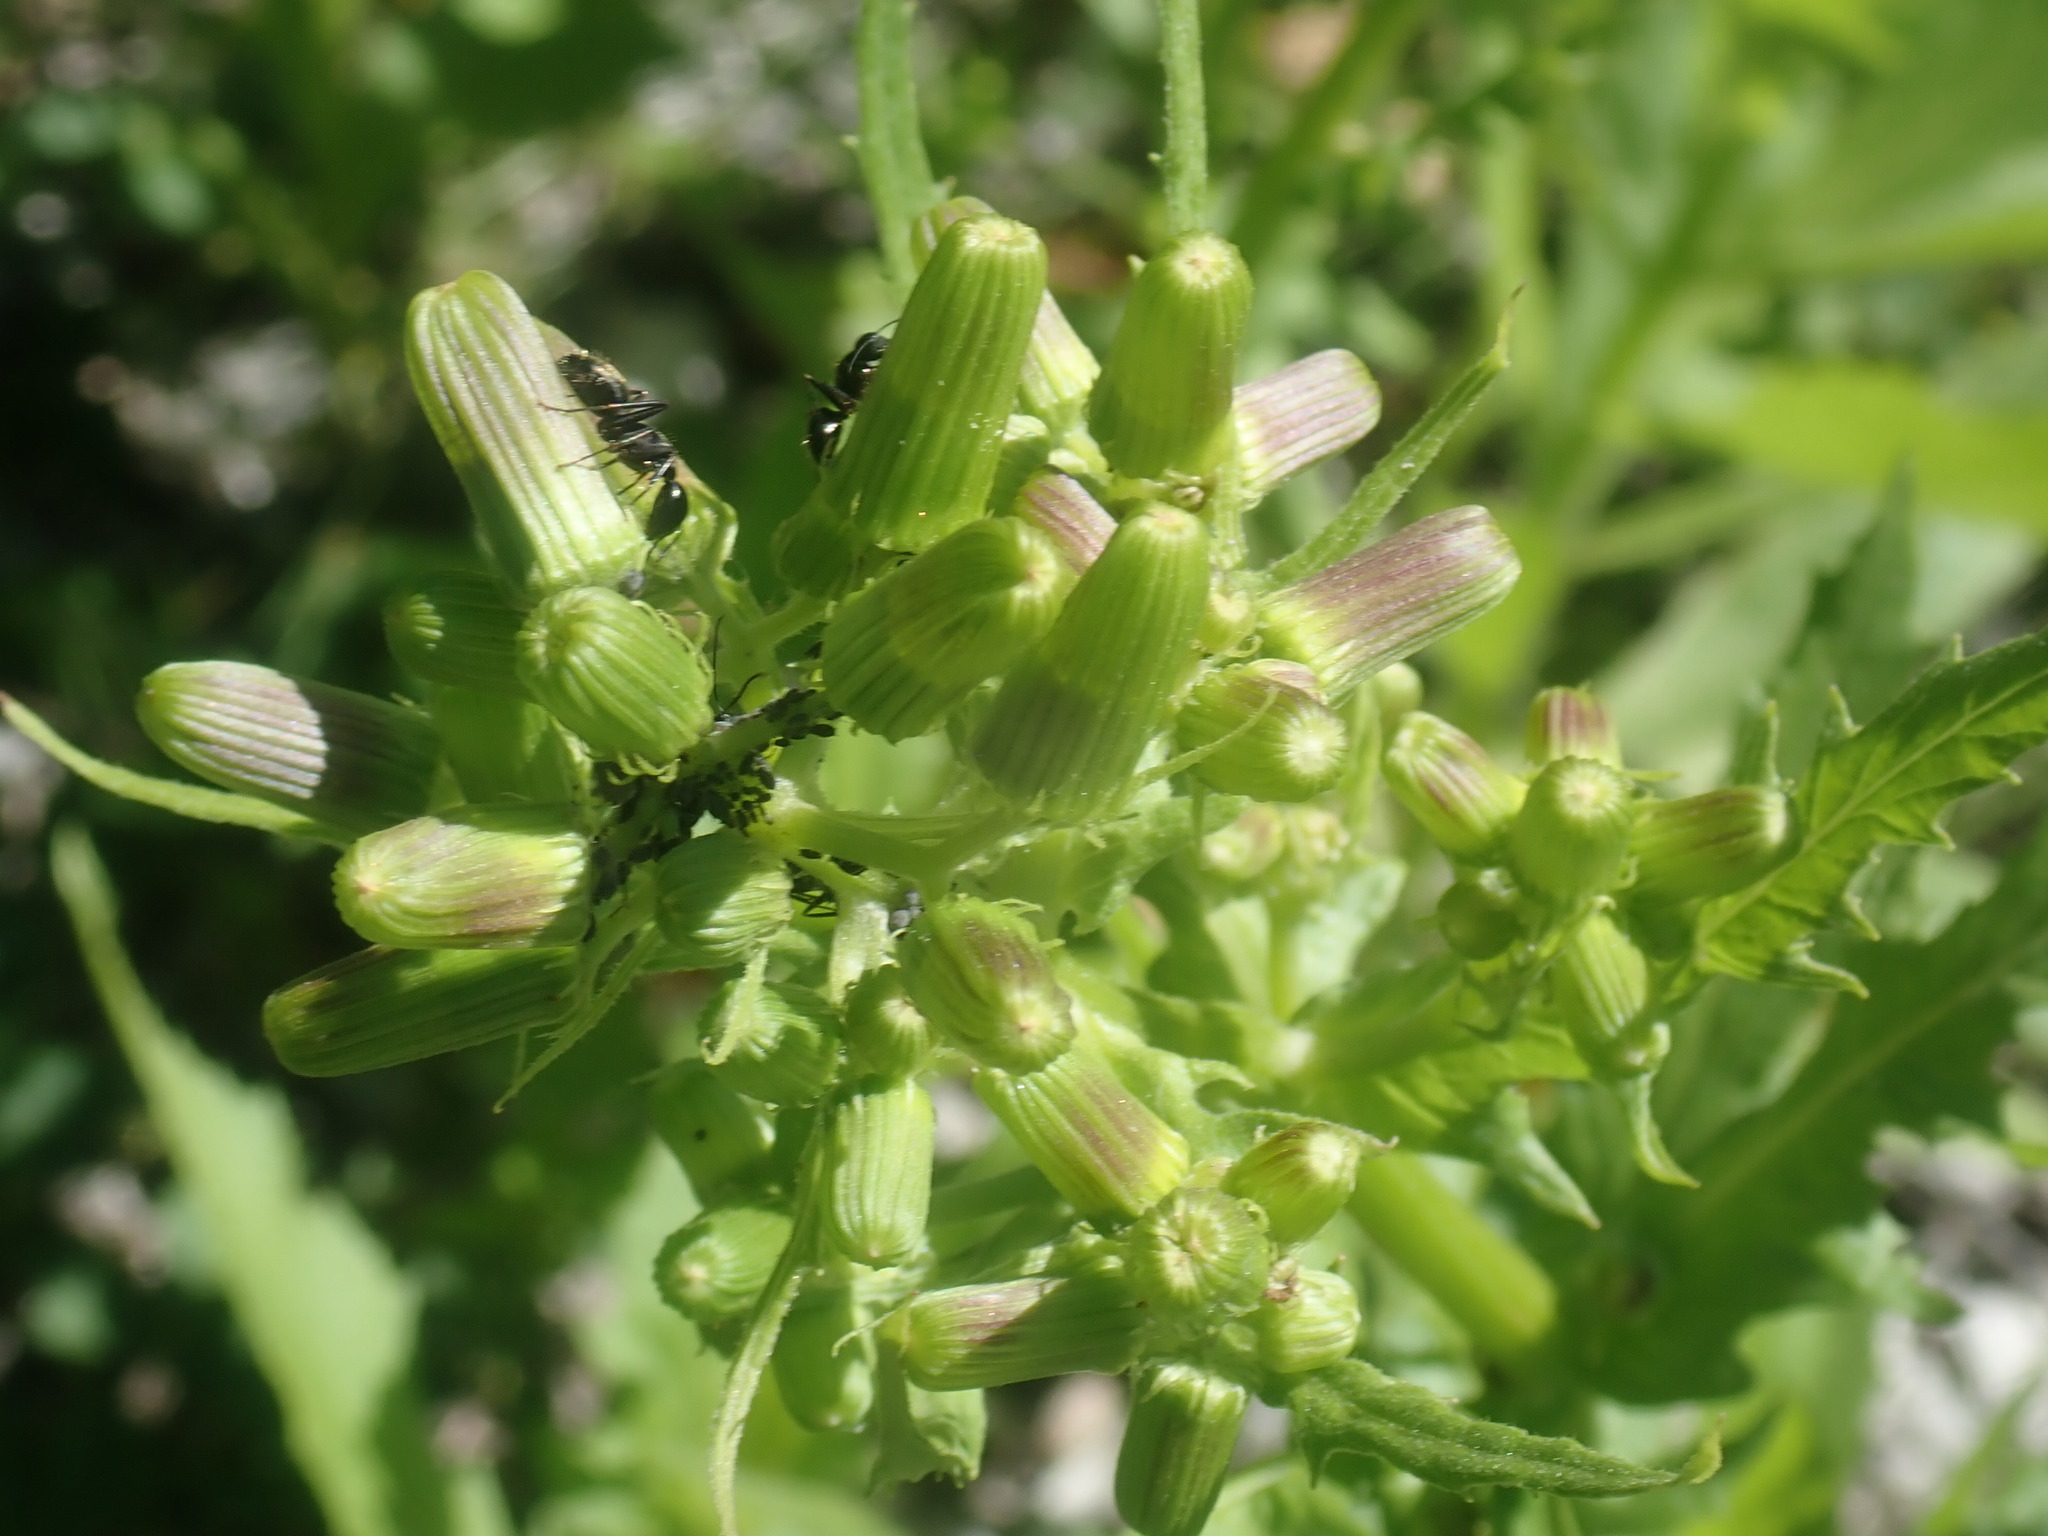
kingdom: Plantae
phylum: Tracheophyta
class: Magnoliopsida
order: Asterales
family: Asteraceae
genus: Erechtites
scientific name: Erechtites hieraciifolius
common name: American burnweed
